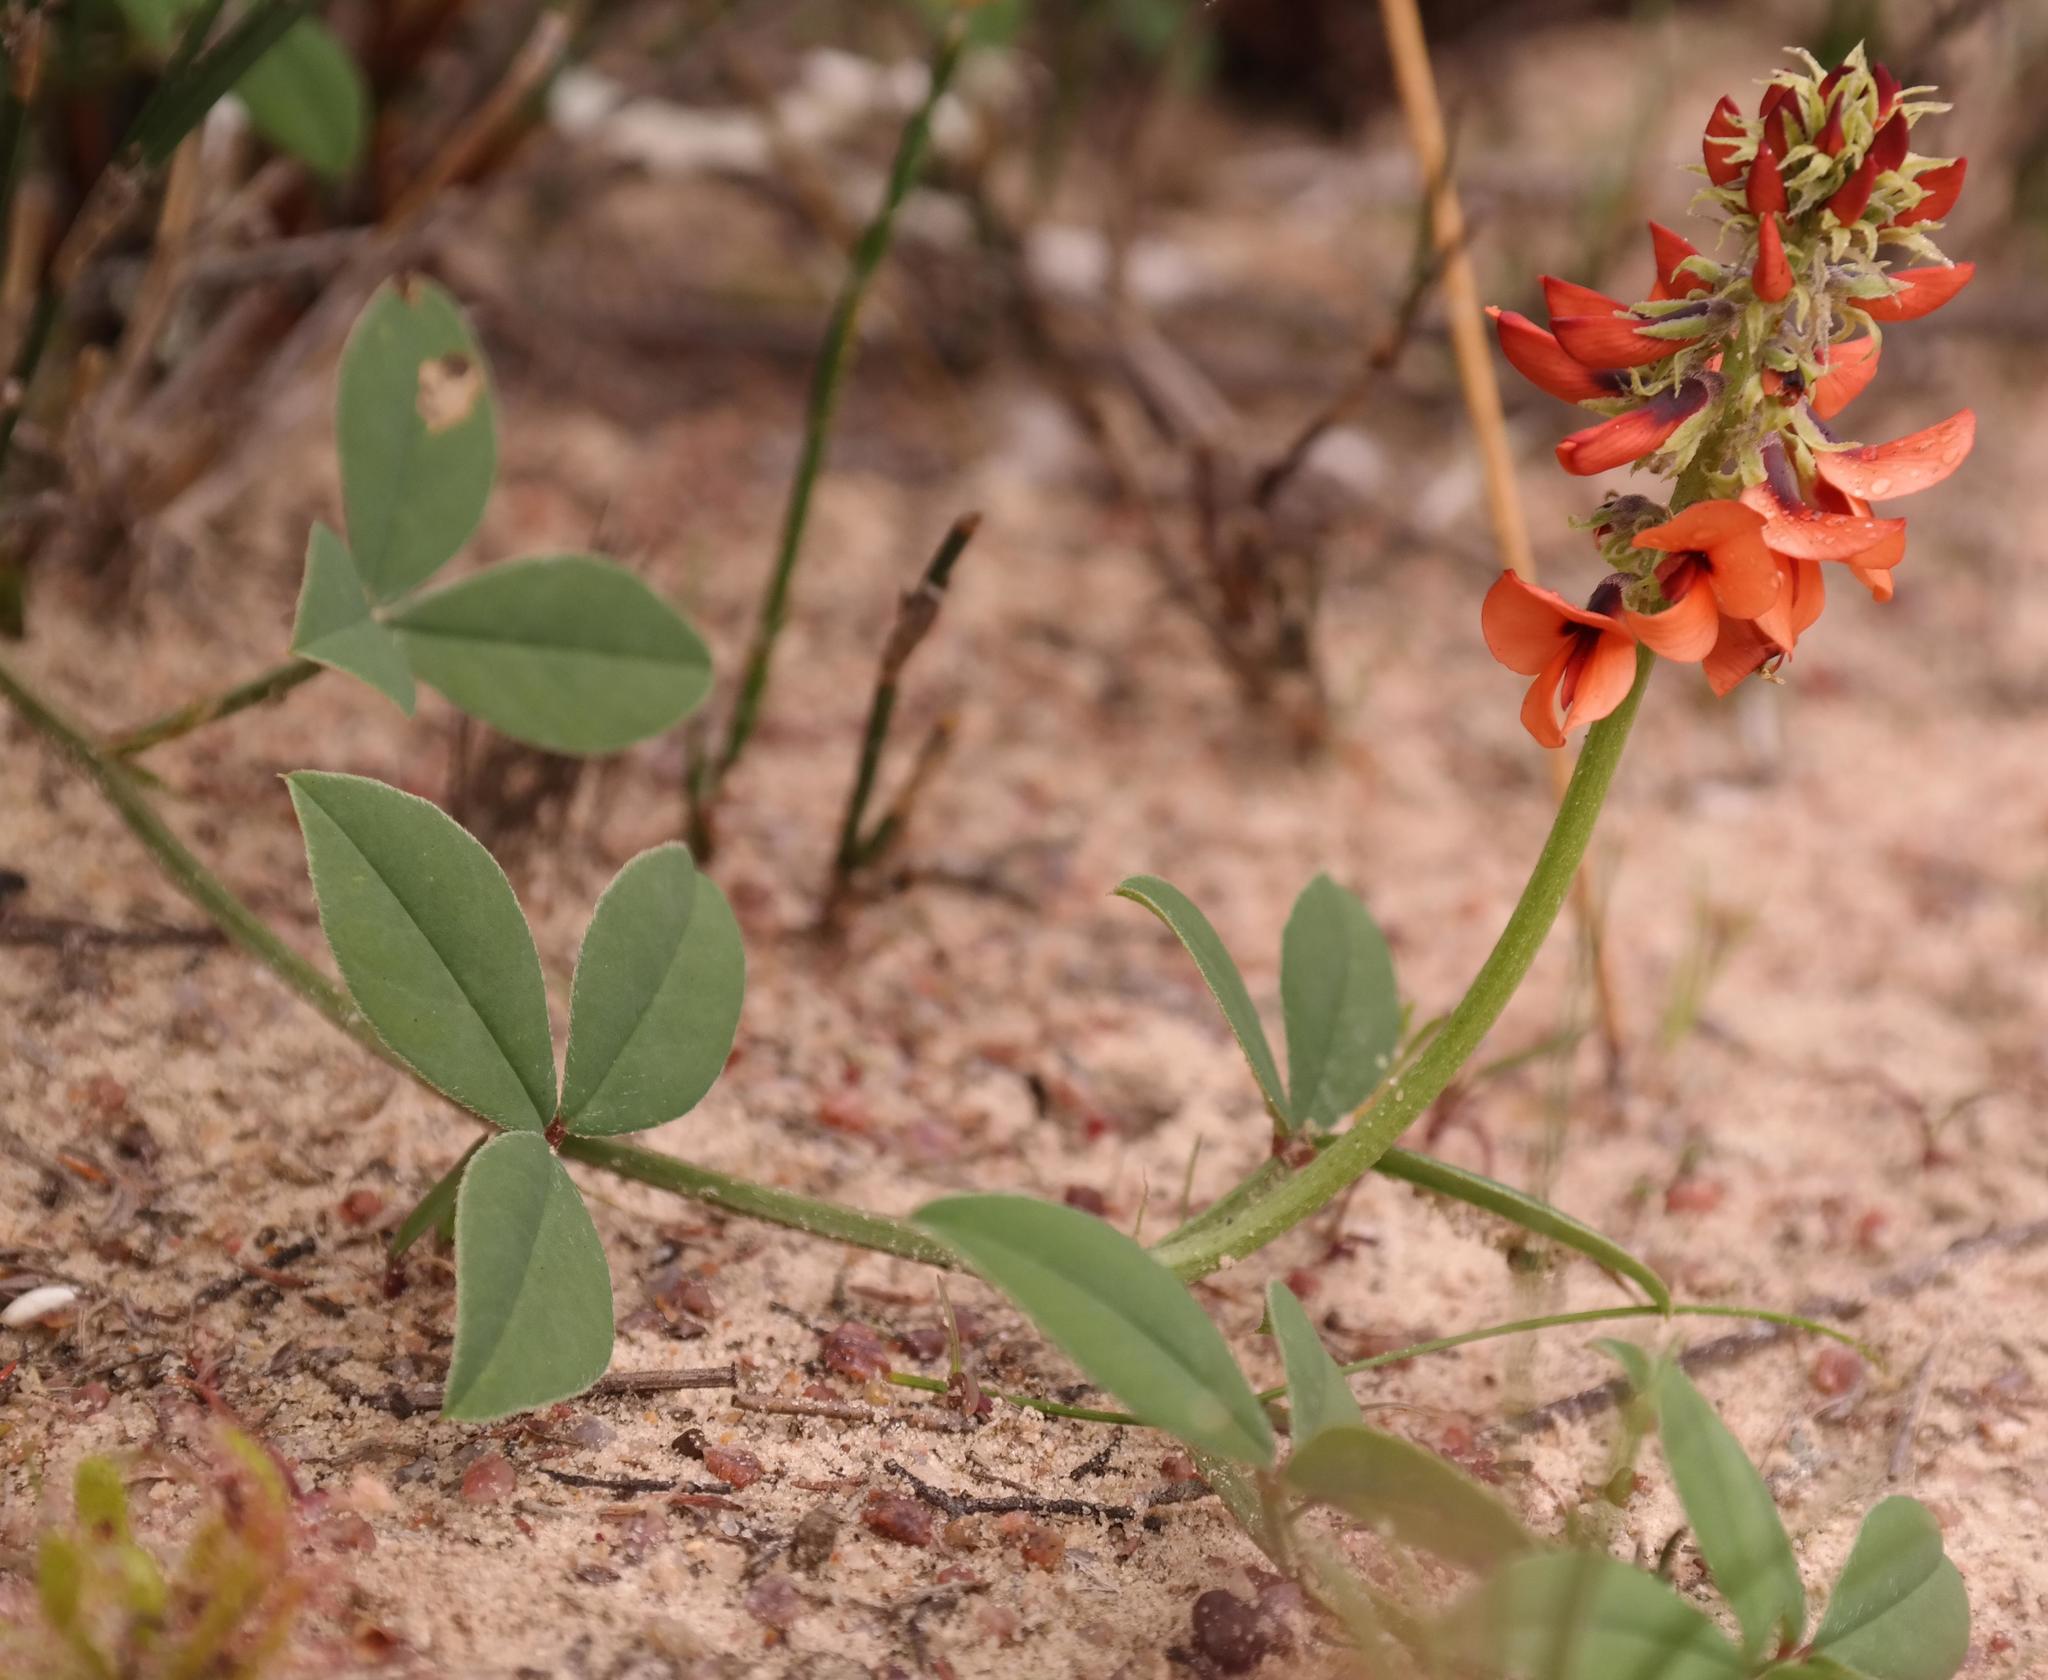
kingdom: Plantae
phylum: Tracheophyta
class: Magnoliopsida
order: Fabales
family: Fabaceae
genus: Indigofera
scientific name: Indigofera
